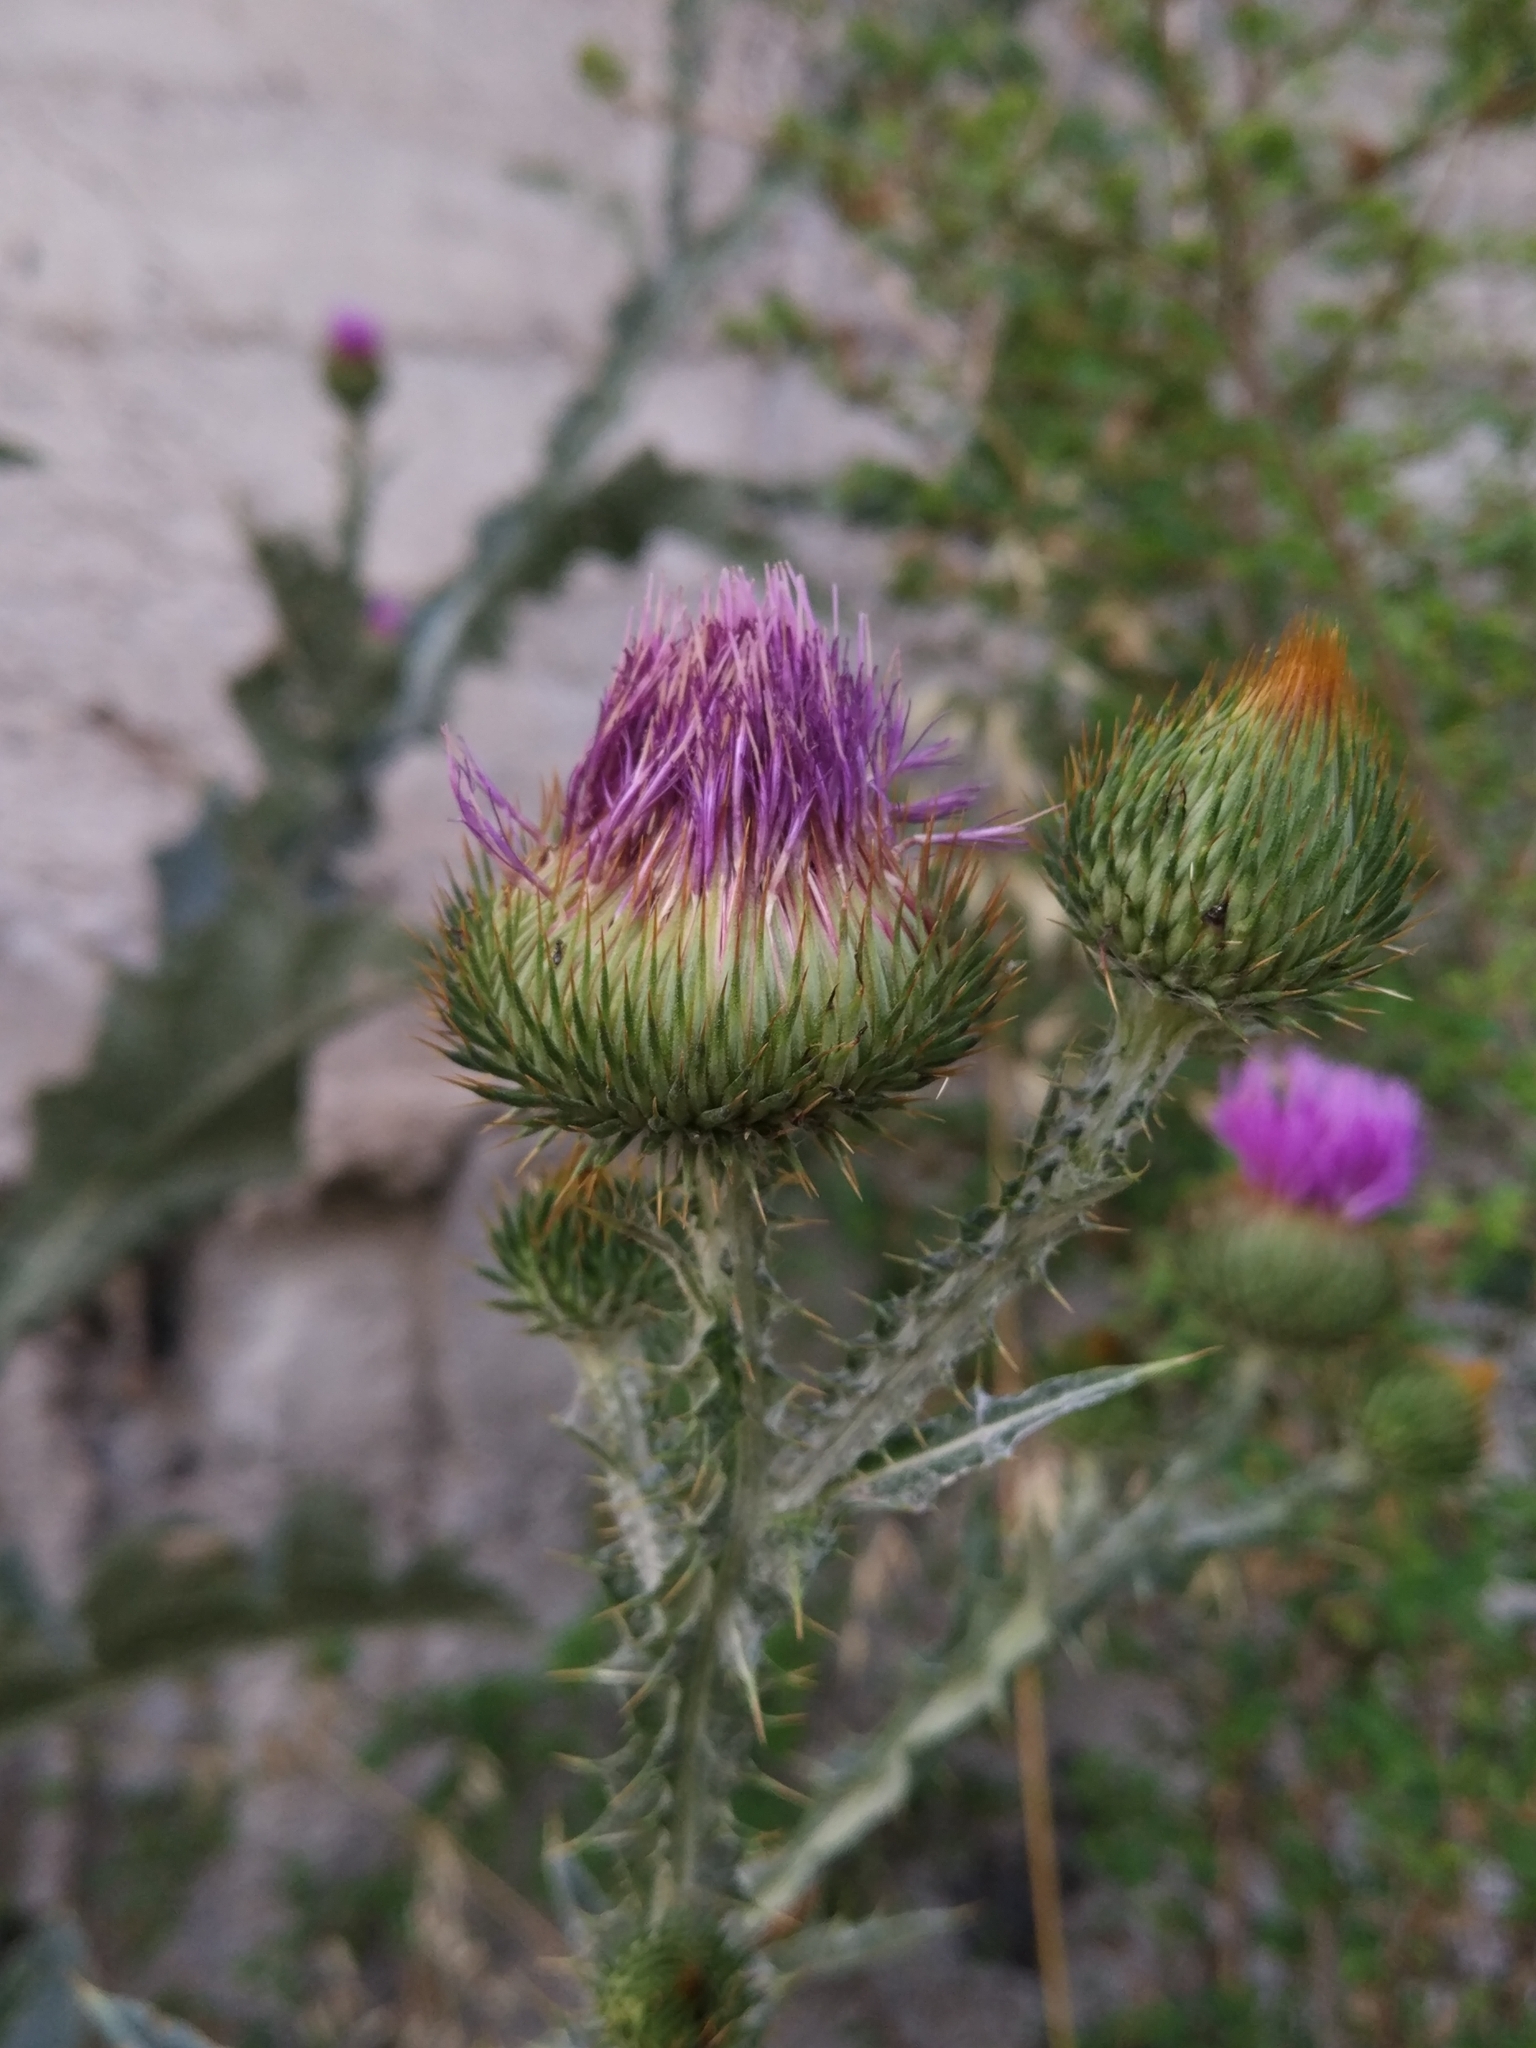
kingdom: Plantae
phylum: Tracheophyta
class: Magnoliopsida
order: Asterales
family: Asteraceae
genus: Onopordum
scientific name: Onopordum acanthium
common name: Scotch thistle
